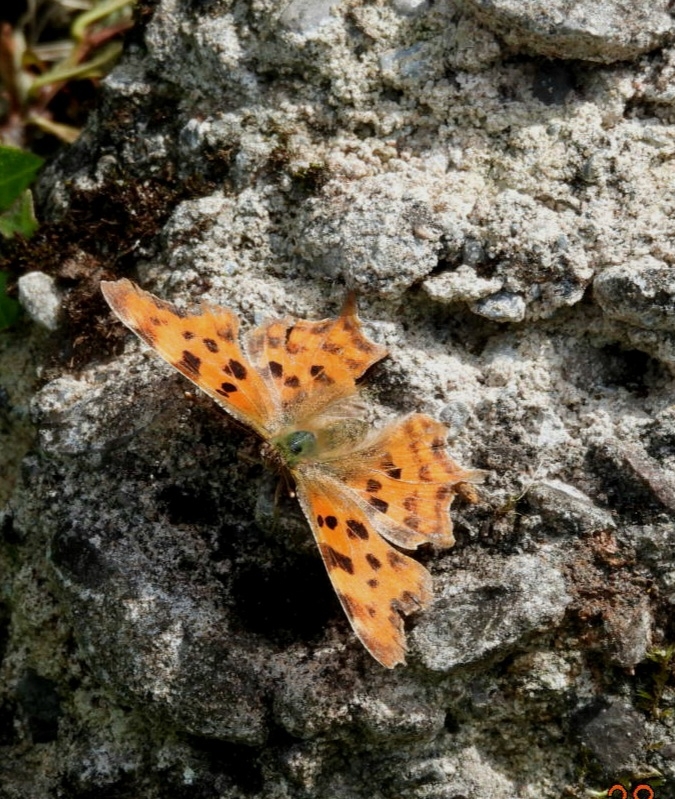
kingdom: Animalia
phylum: Arthropoda
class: Insecta
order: Lepidoptera
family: Nymphalidae
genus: Polygonia
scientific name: Polygonia c-album
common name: Comma
